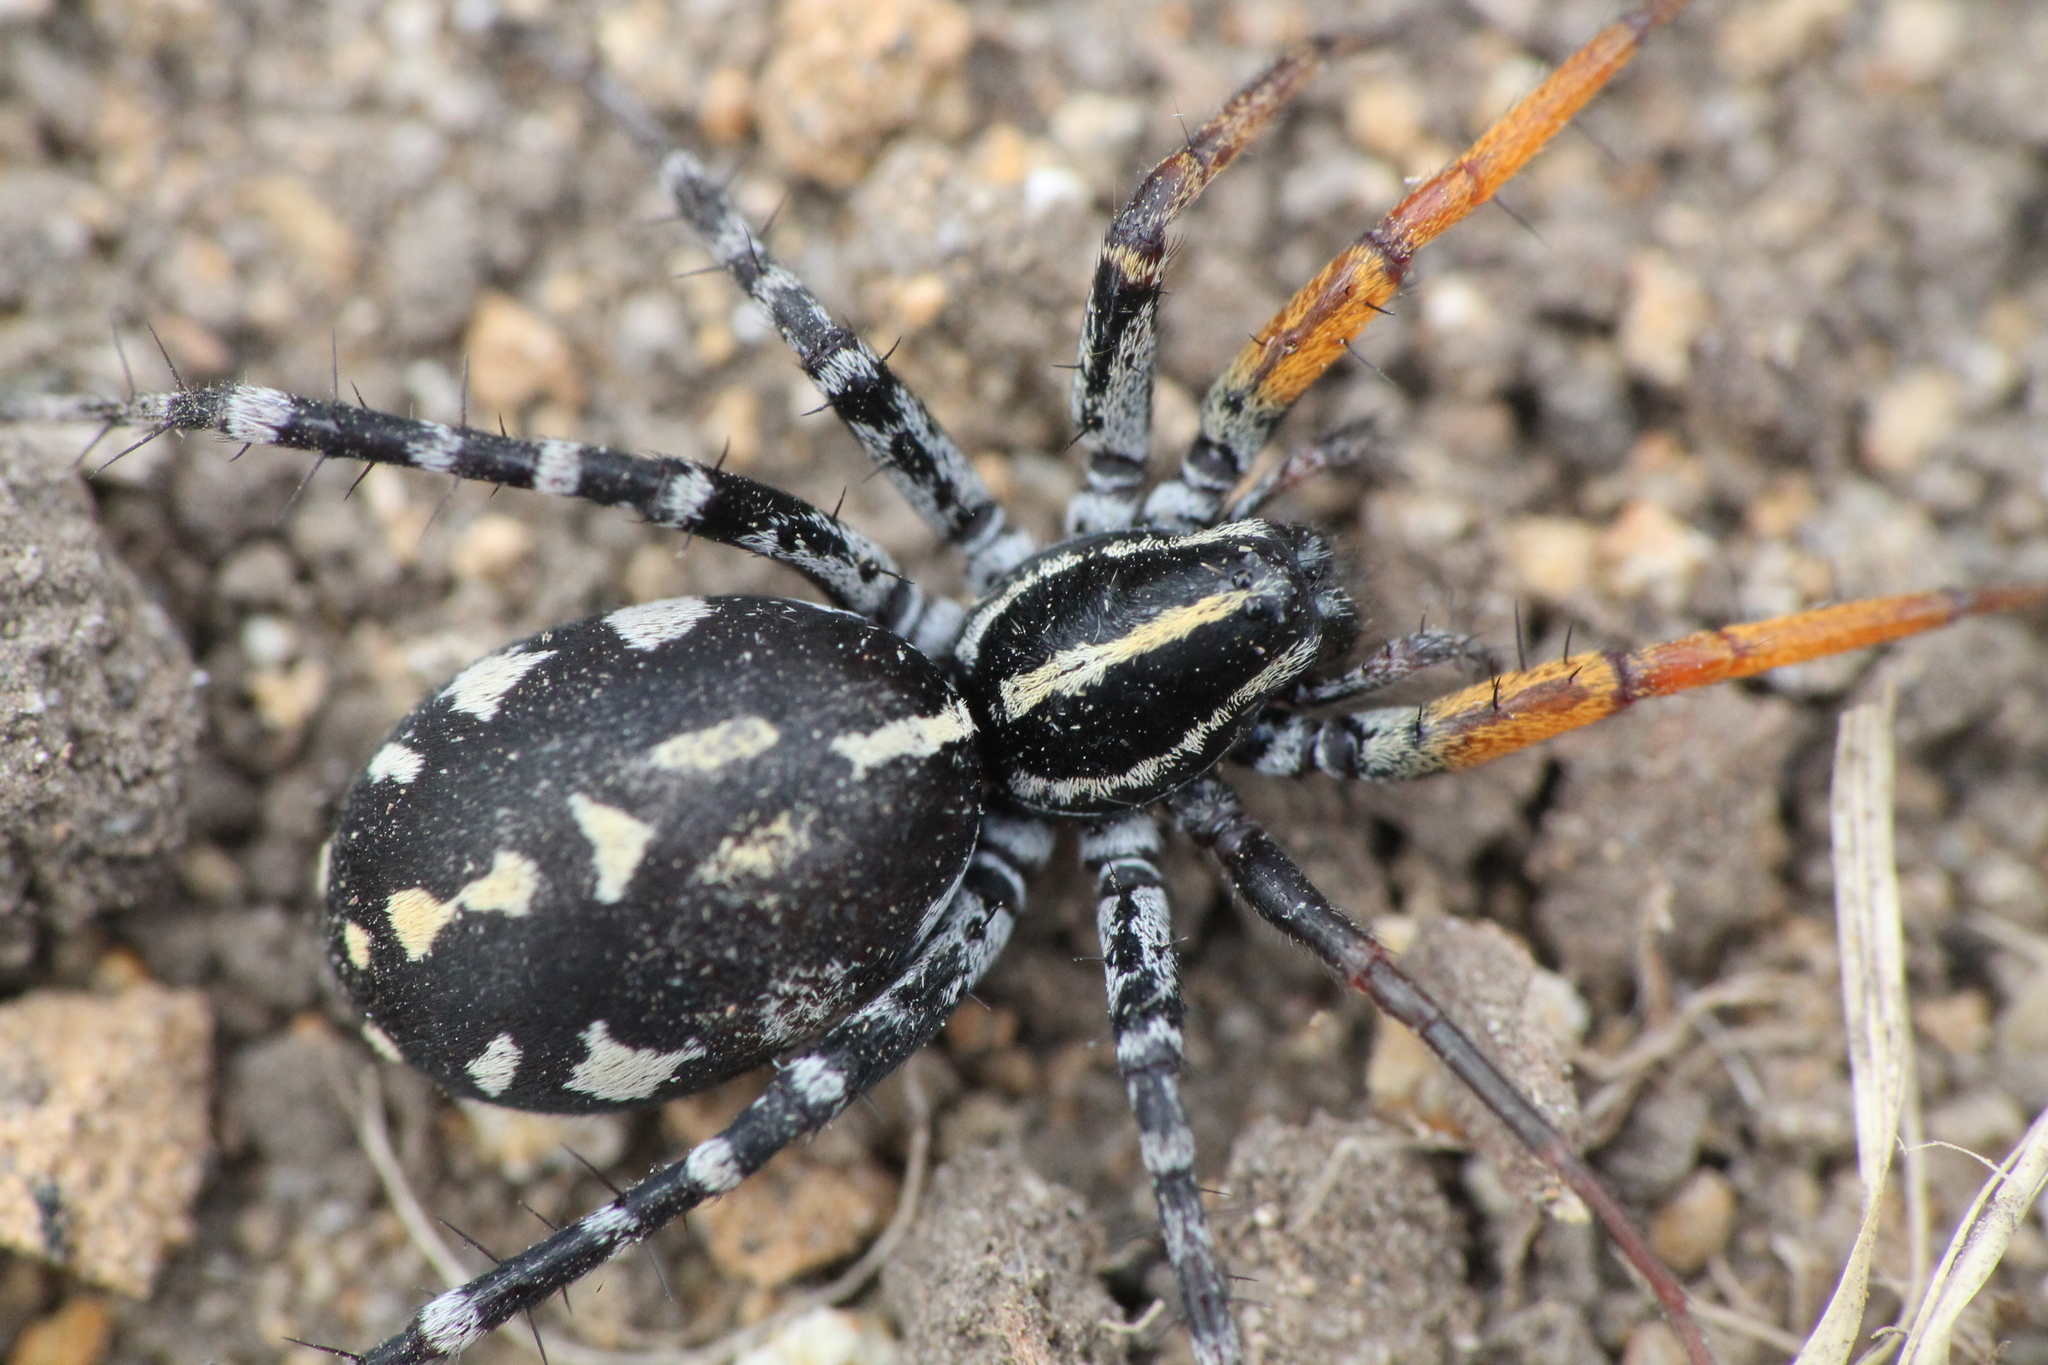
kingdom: Animalia
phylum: Arthropoda
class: Arachnida
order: Araneae
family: Corinnidae
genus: Nyssus
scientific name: Nyssus coloripes
